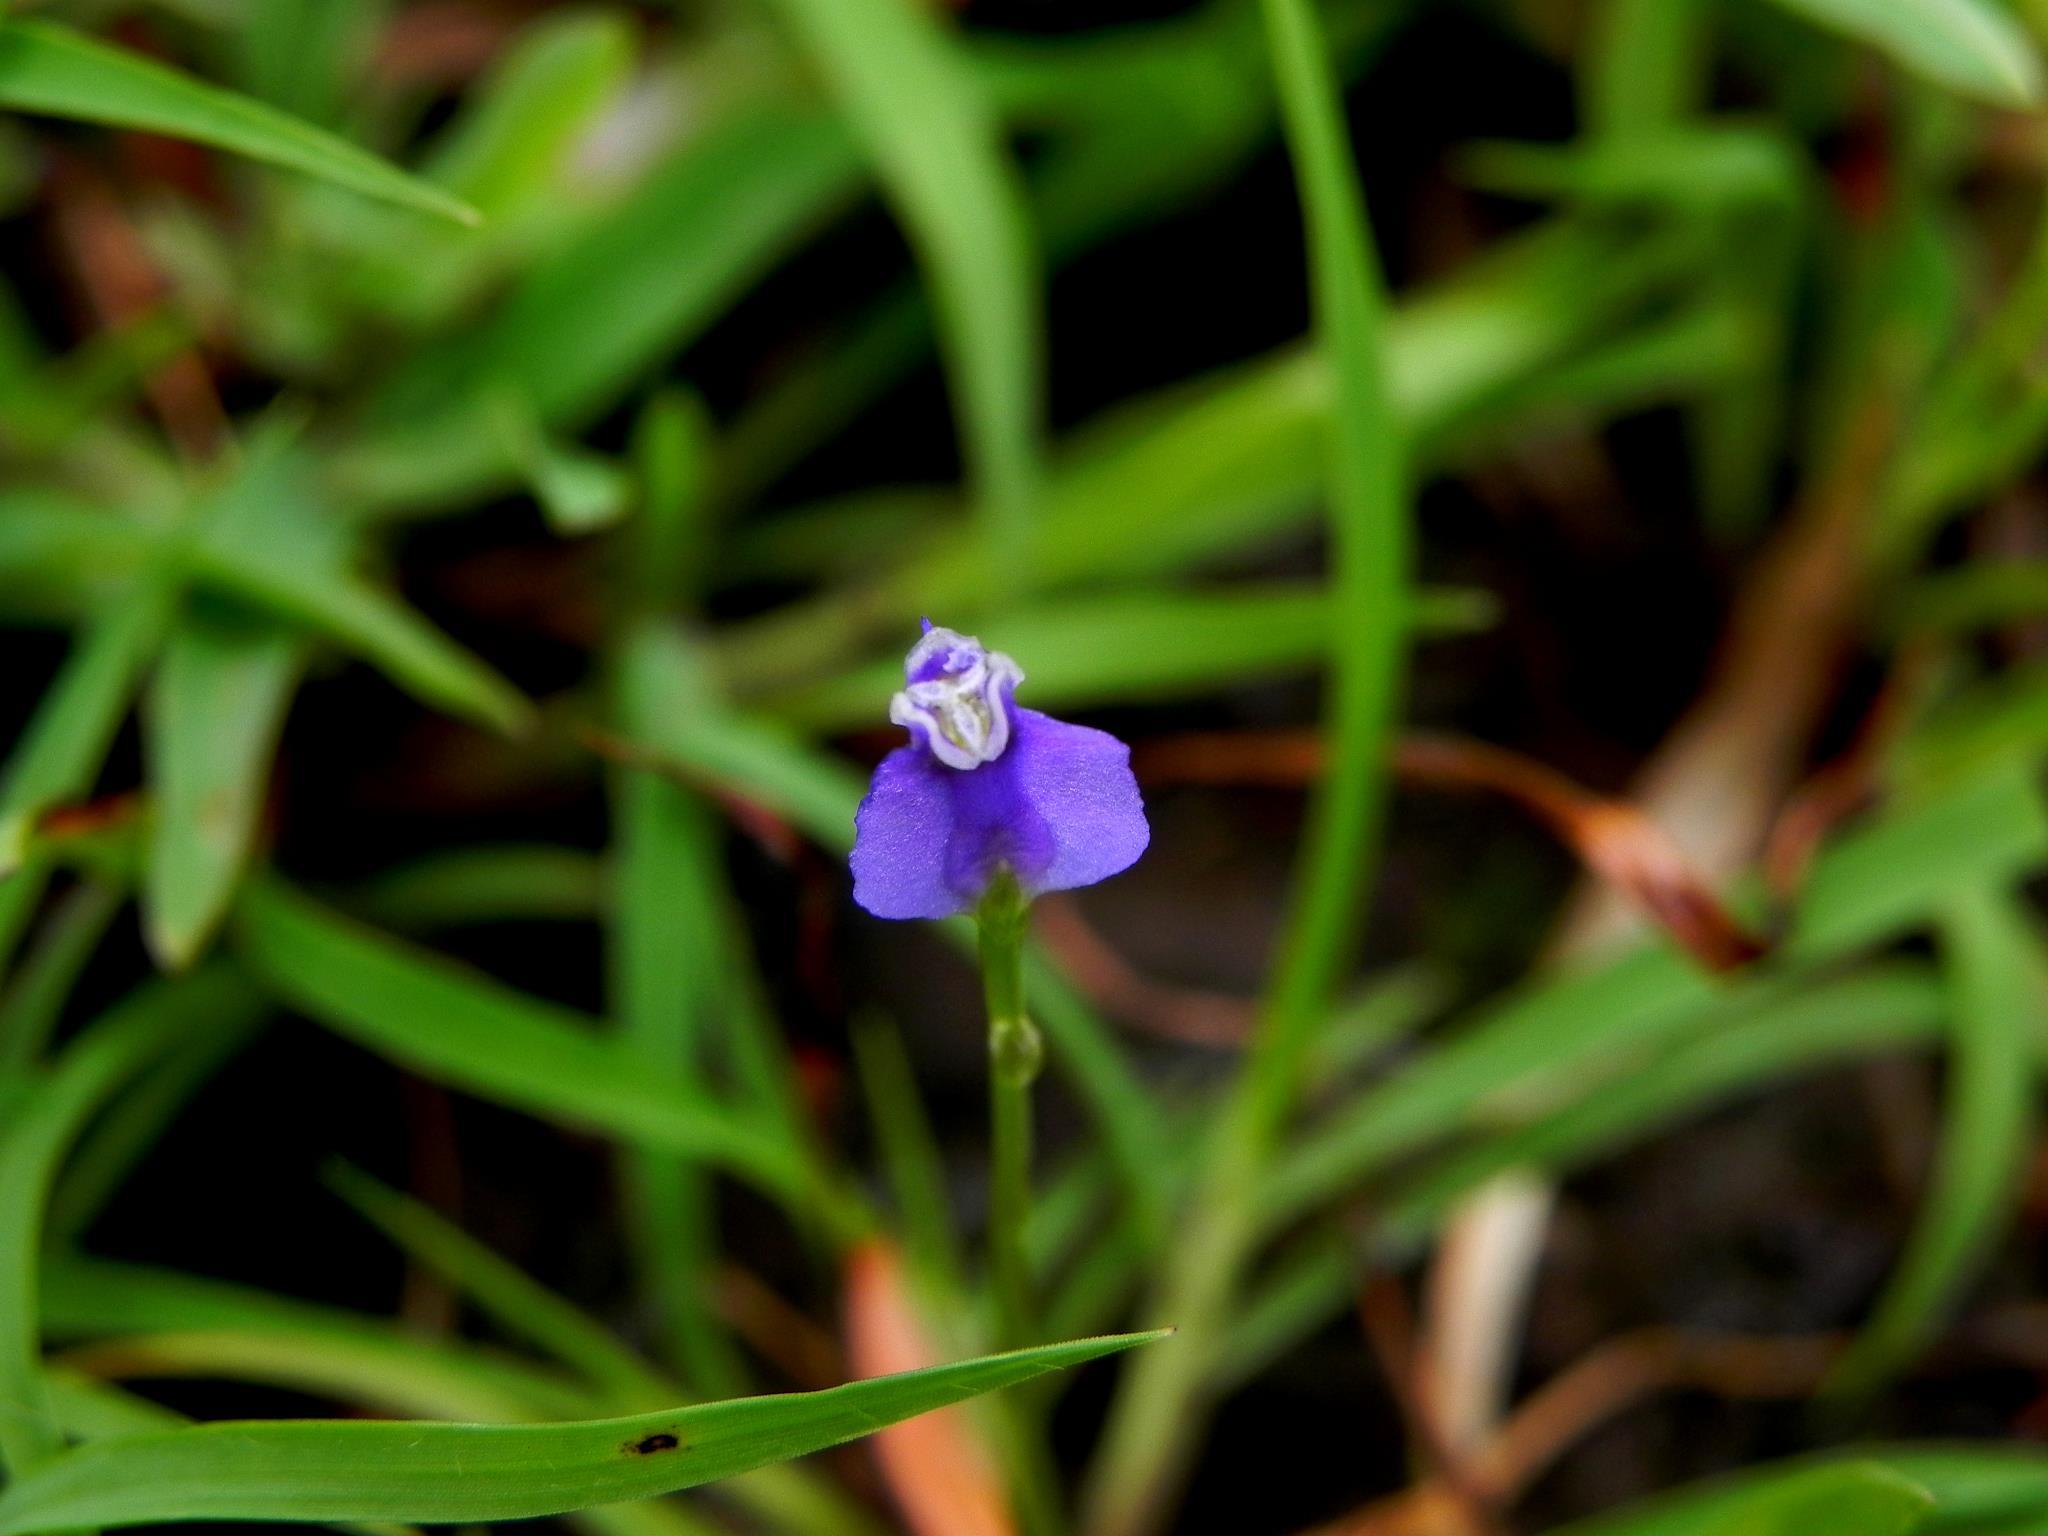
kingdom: Plantae
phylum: Tracheophyta
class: Liliopsida
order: Dioscoreales
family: Burmanniaceae
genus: Burmannia
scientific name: Burmannia pusilla
